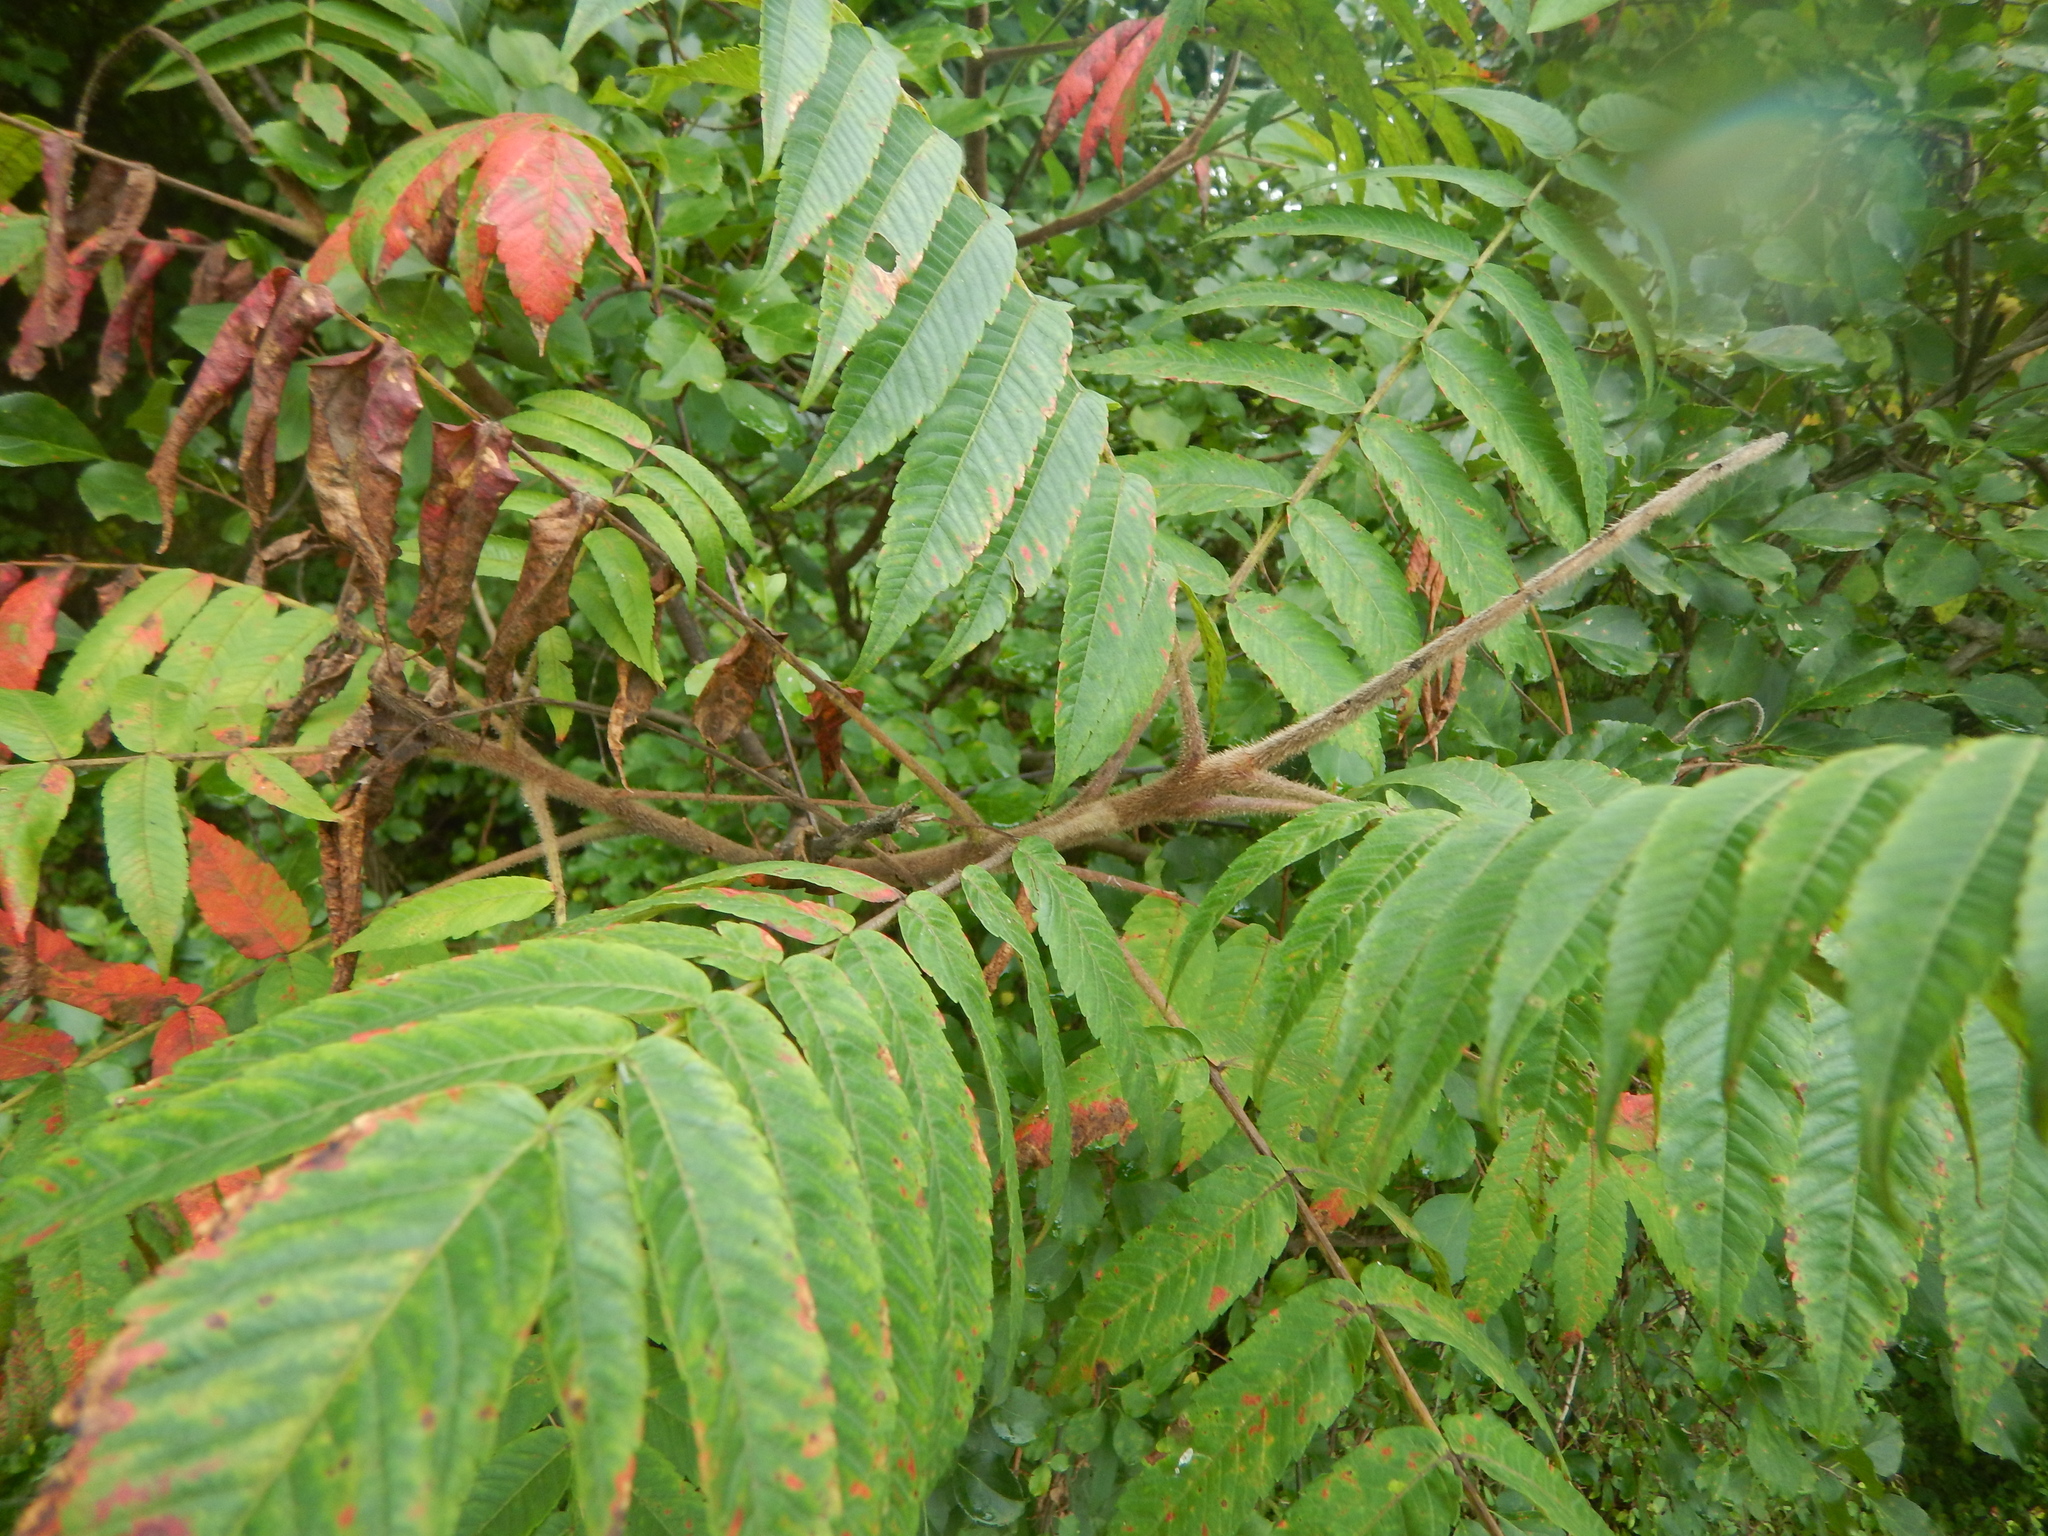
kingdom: Plantae
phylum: Tracheophyta
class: Magnoliopsida
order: Sapindales
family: Anacardiaceae
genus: Rhus
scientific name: Rhus typhina
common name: Staghorn sumac
